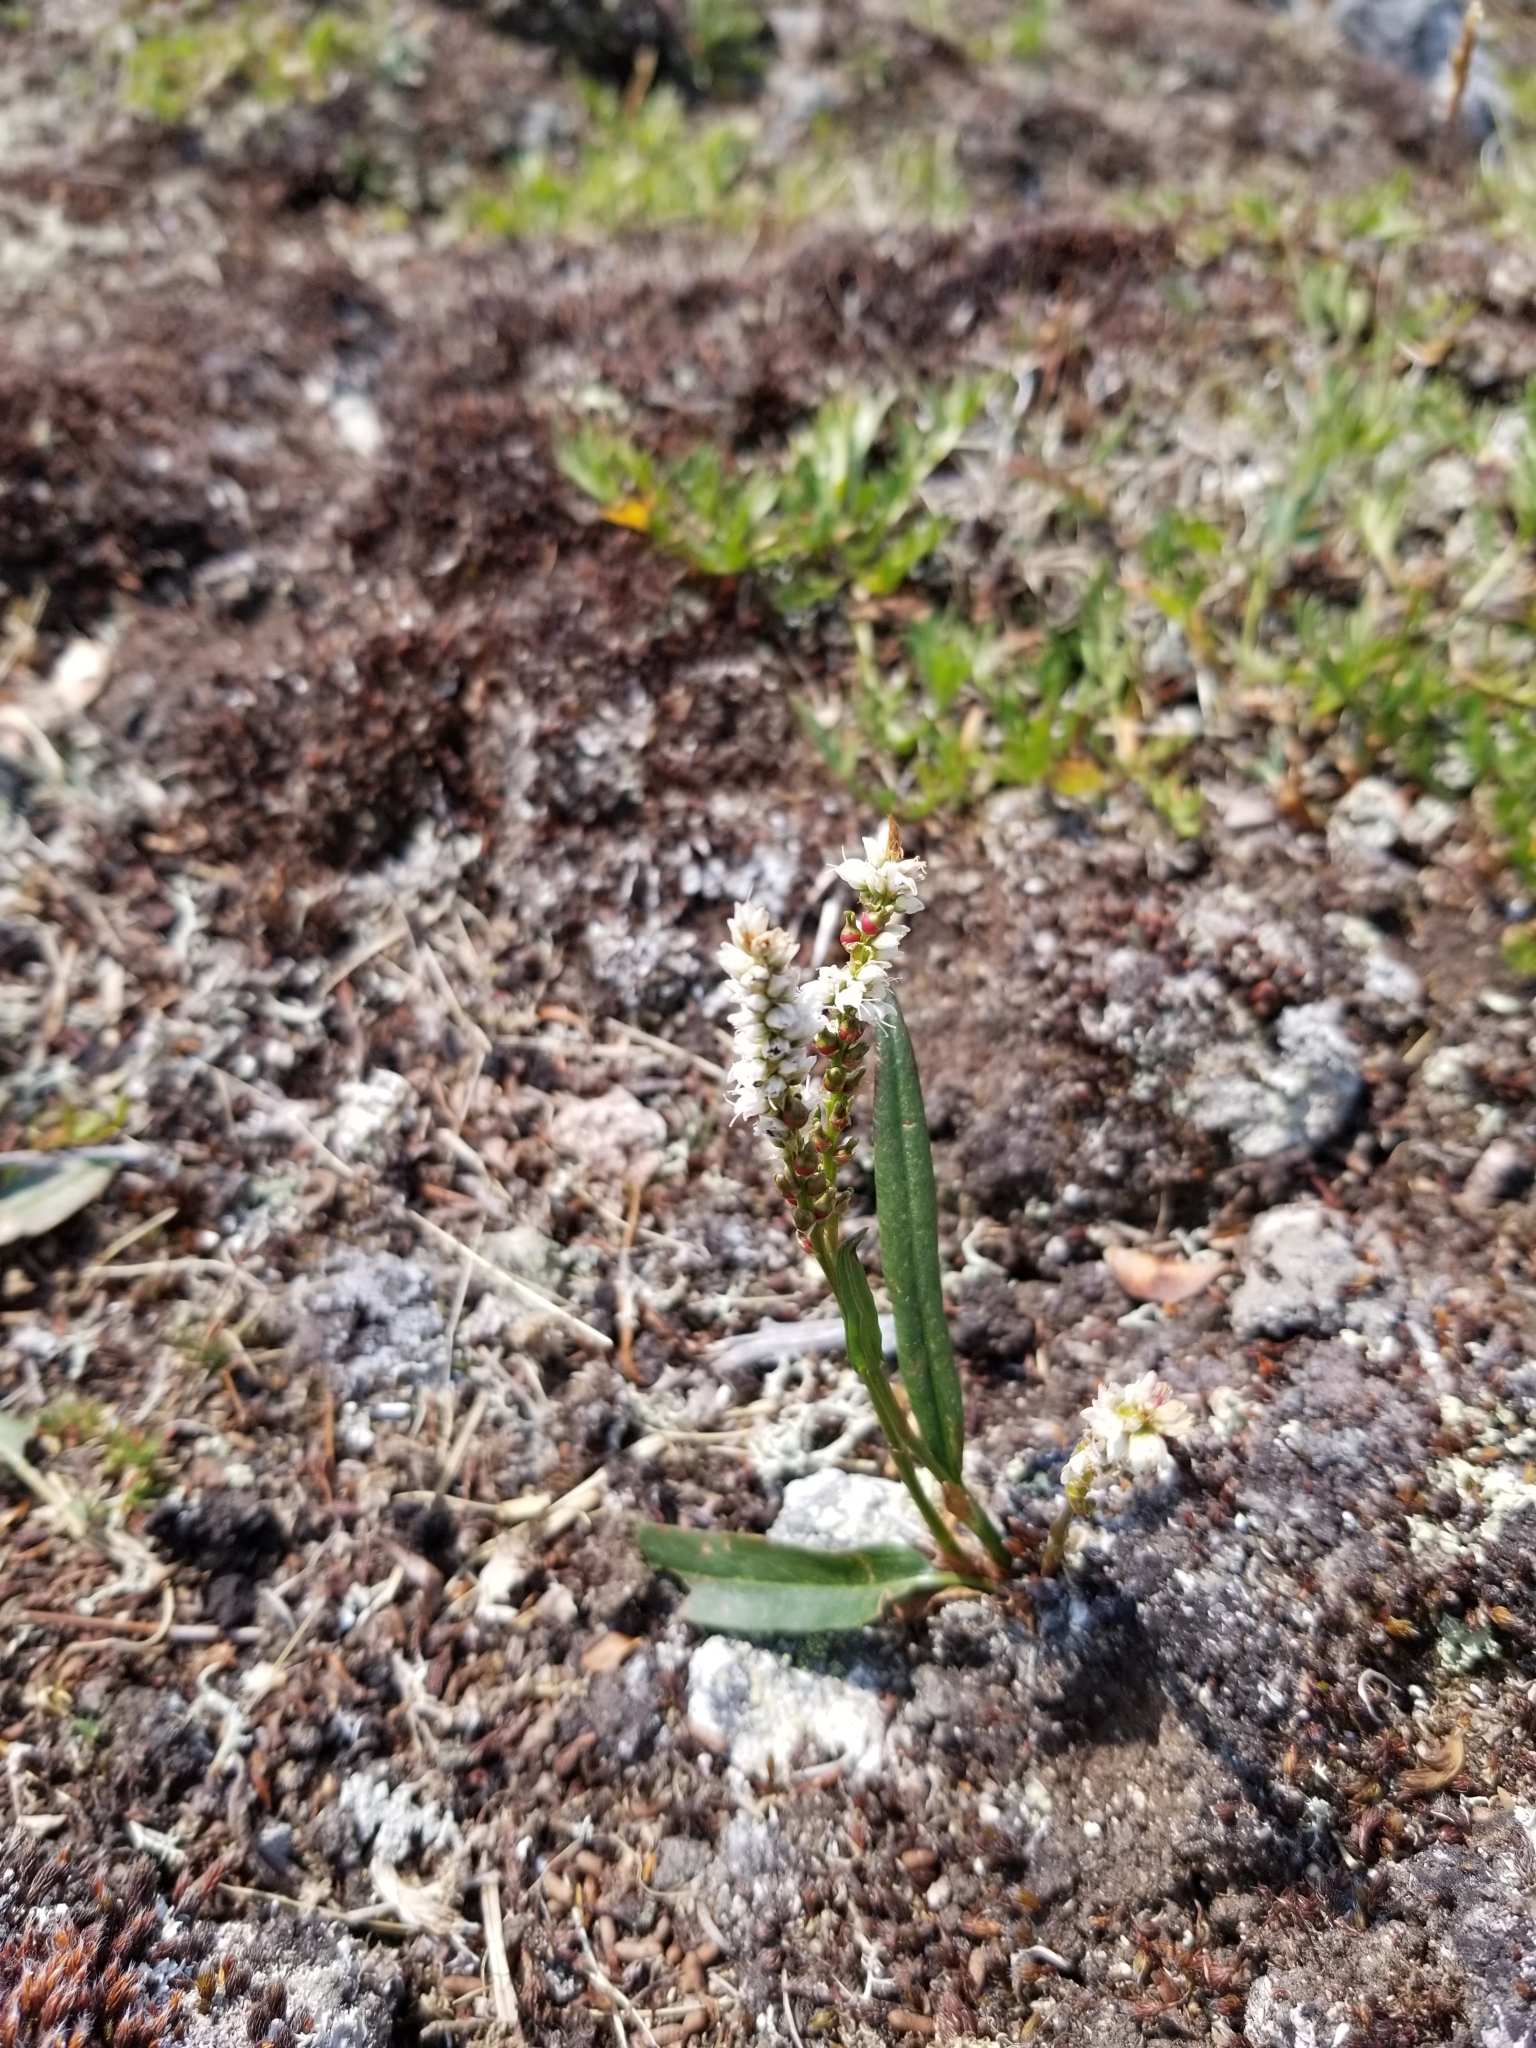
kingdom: Plantae
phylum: Tracheophyta
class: Magnoliopsida
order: Caryophyllales
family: Polygonaceae
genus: Bistorta
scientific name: Bistorta vivipara
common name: Alpine bistort
